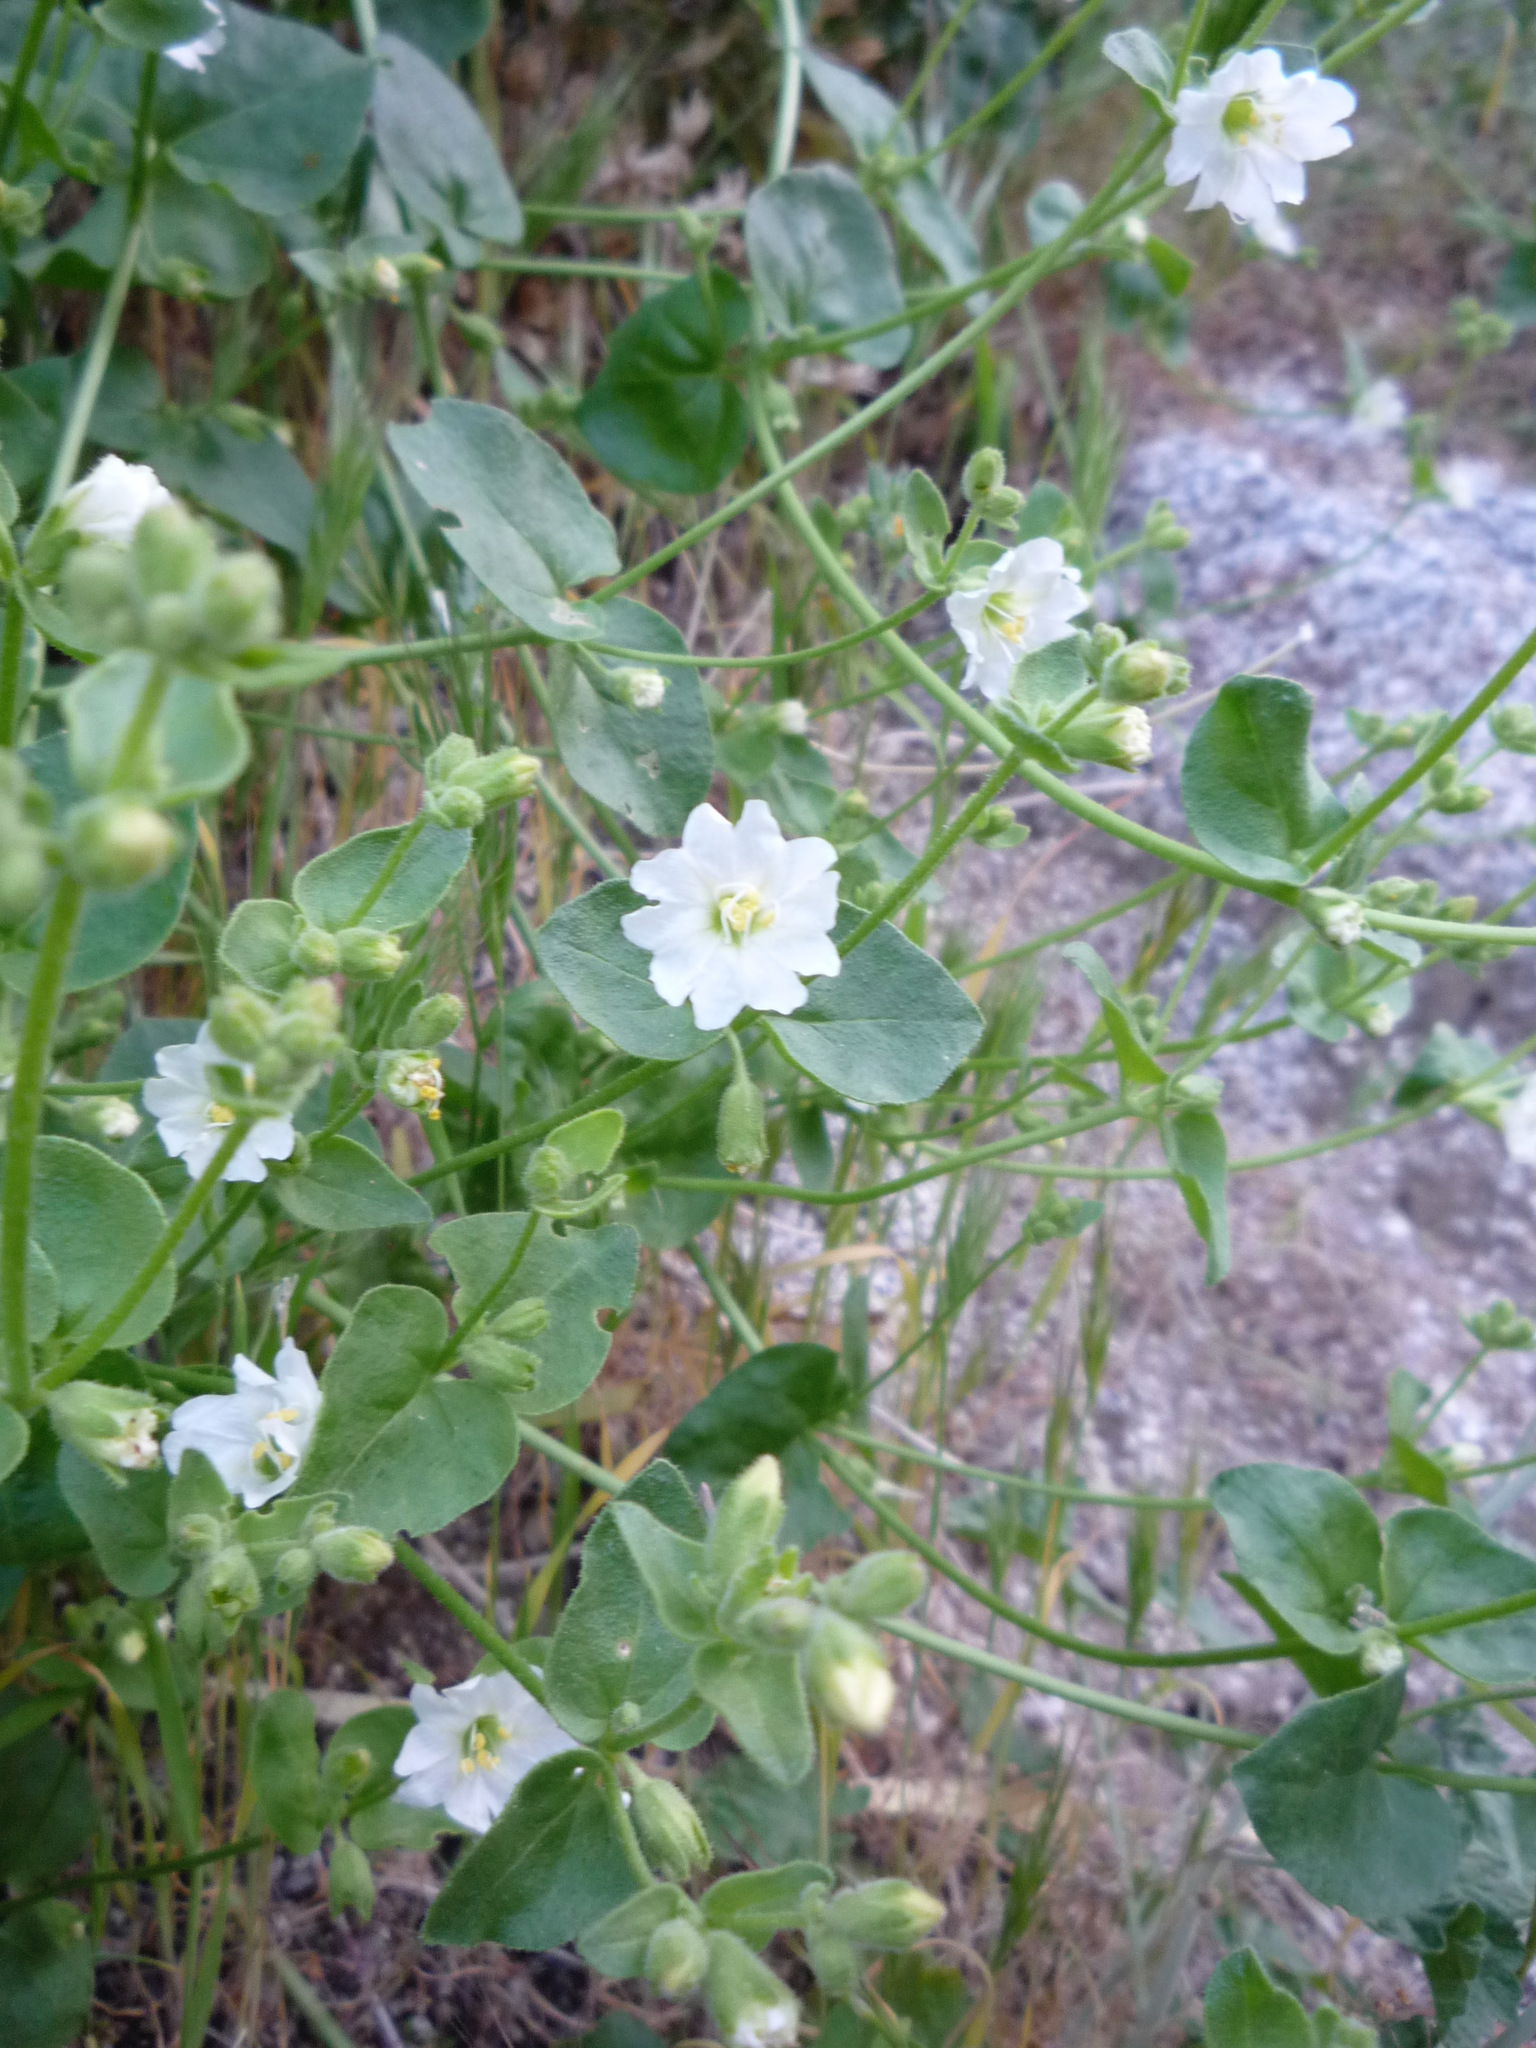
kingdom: Plantae
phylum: Tracheophyta
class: Magnoliopsida
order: Caryophyllales
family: Nyctaginaceae
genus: Mirabilis
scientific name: Mirabilis laevis
